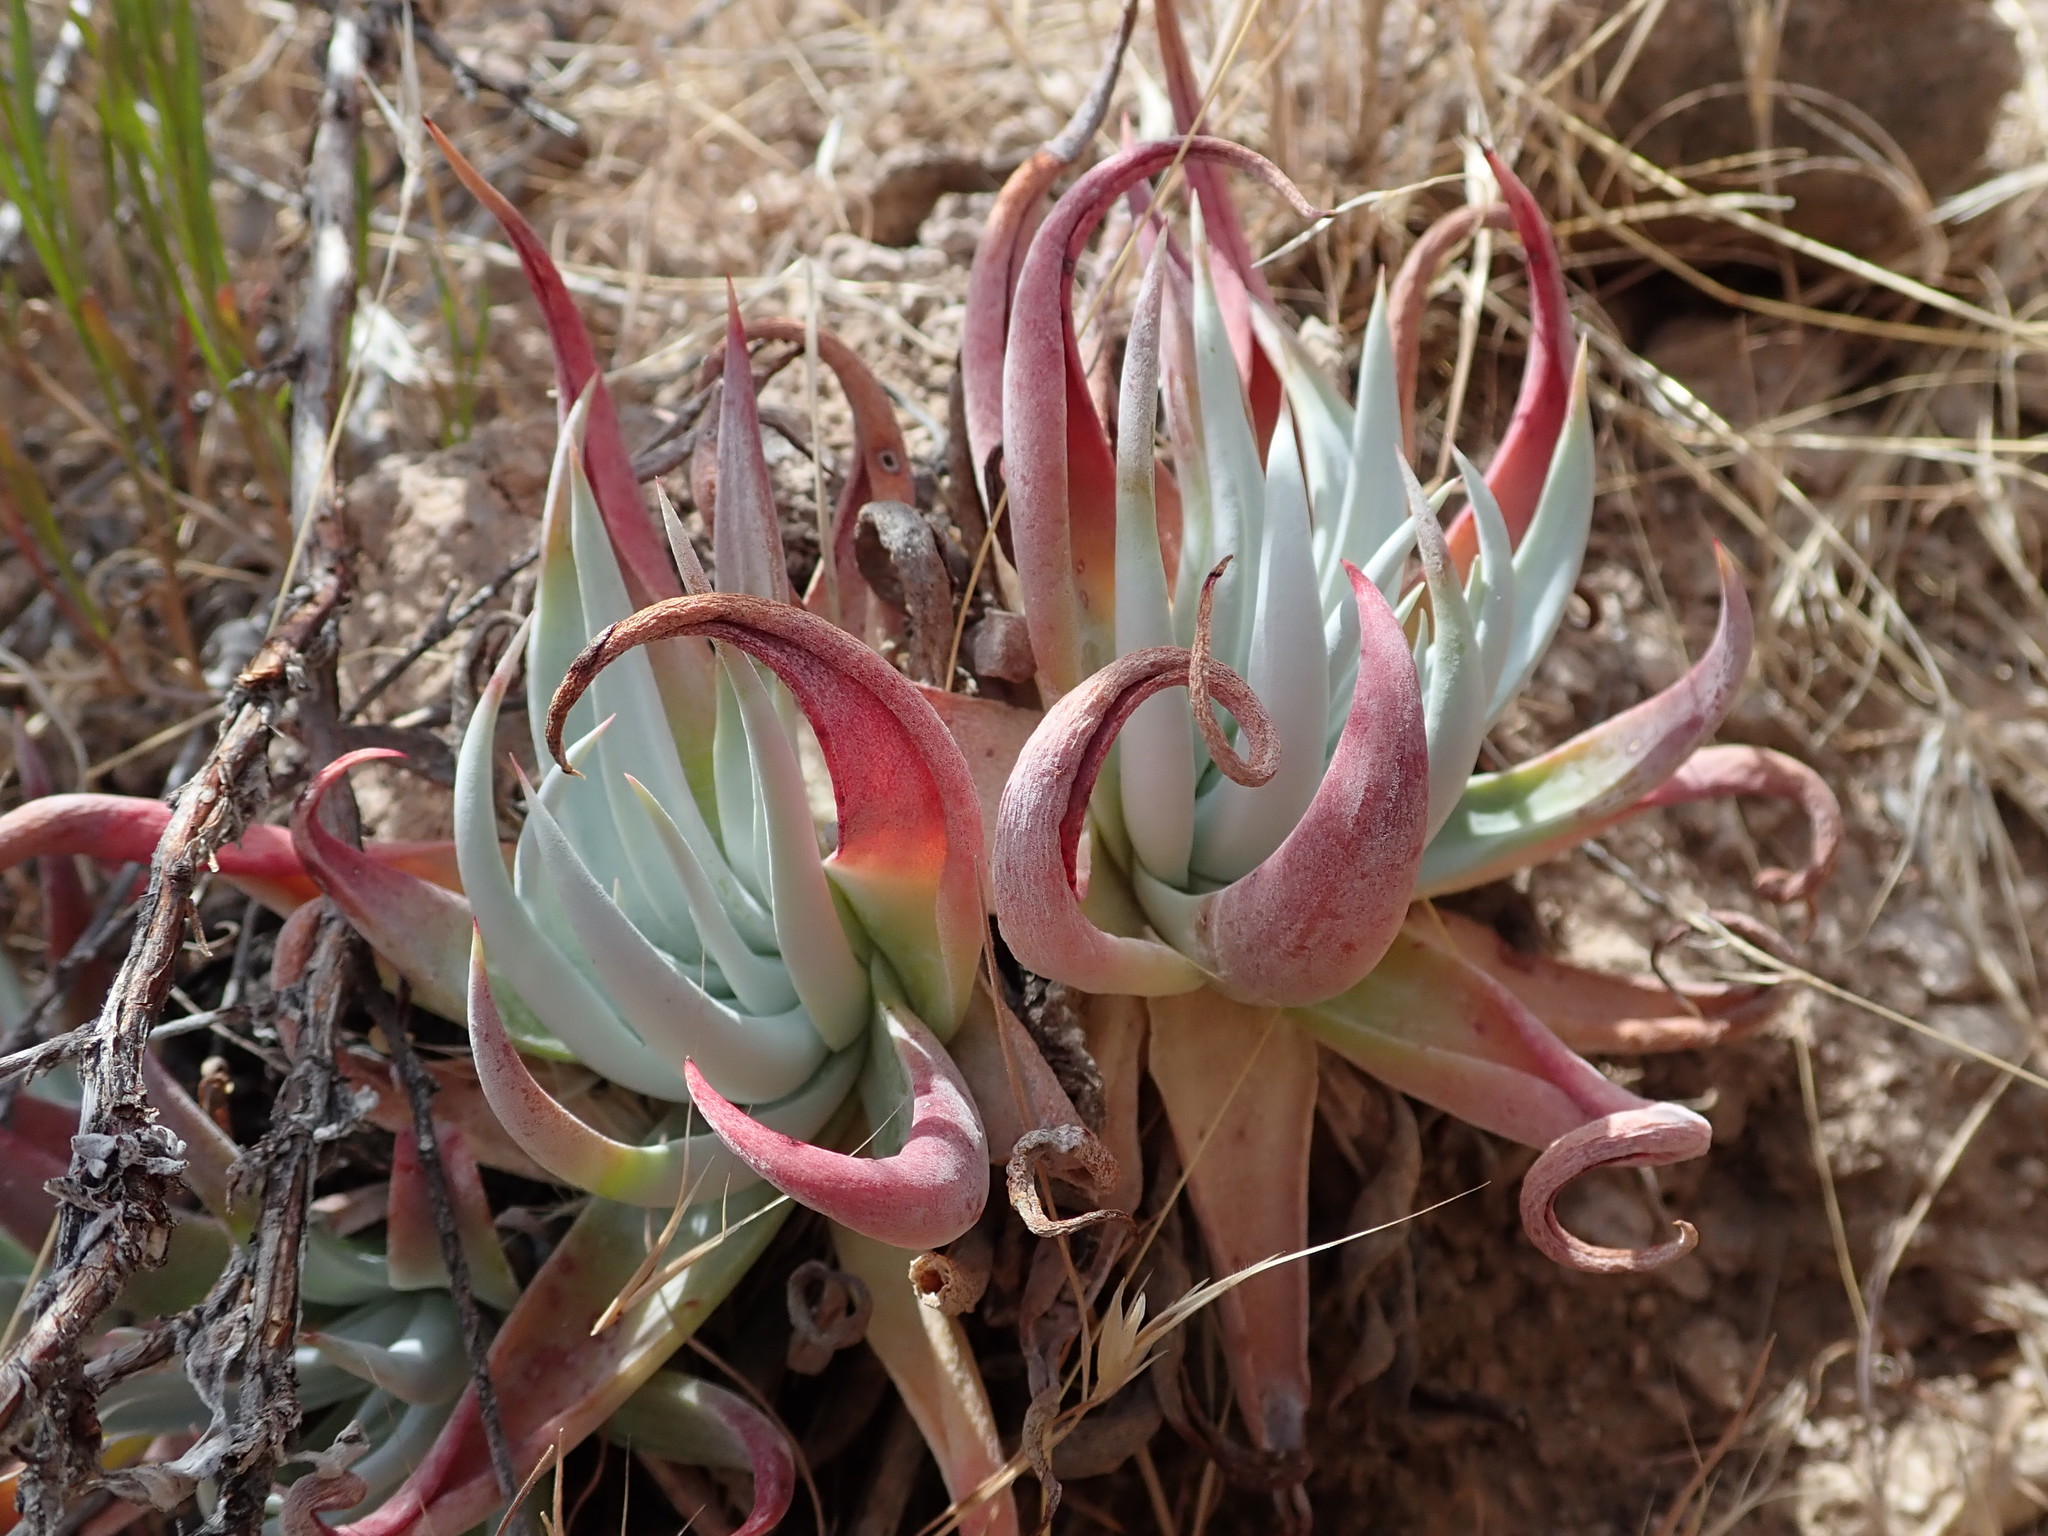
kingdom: Plantae
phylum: Tracheophyta
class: Magnoliopsida
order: Saxifragales
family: Crassulaceae
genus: Dudleya
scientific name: Dudleya collomiae
